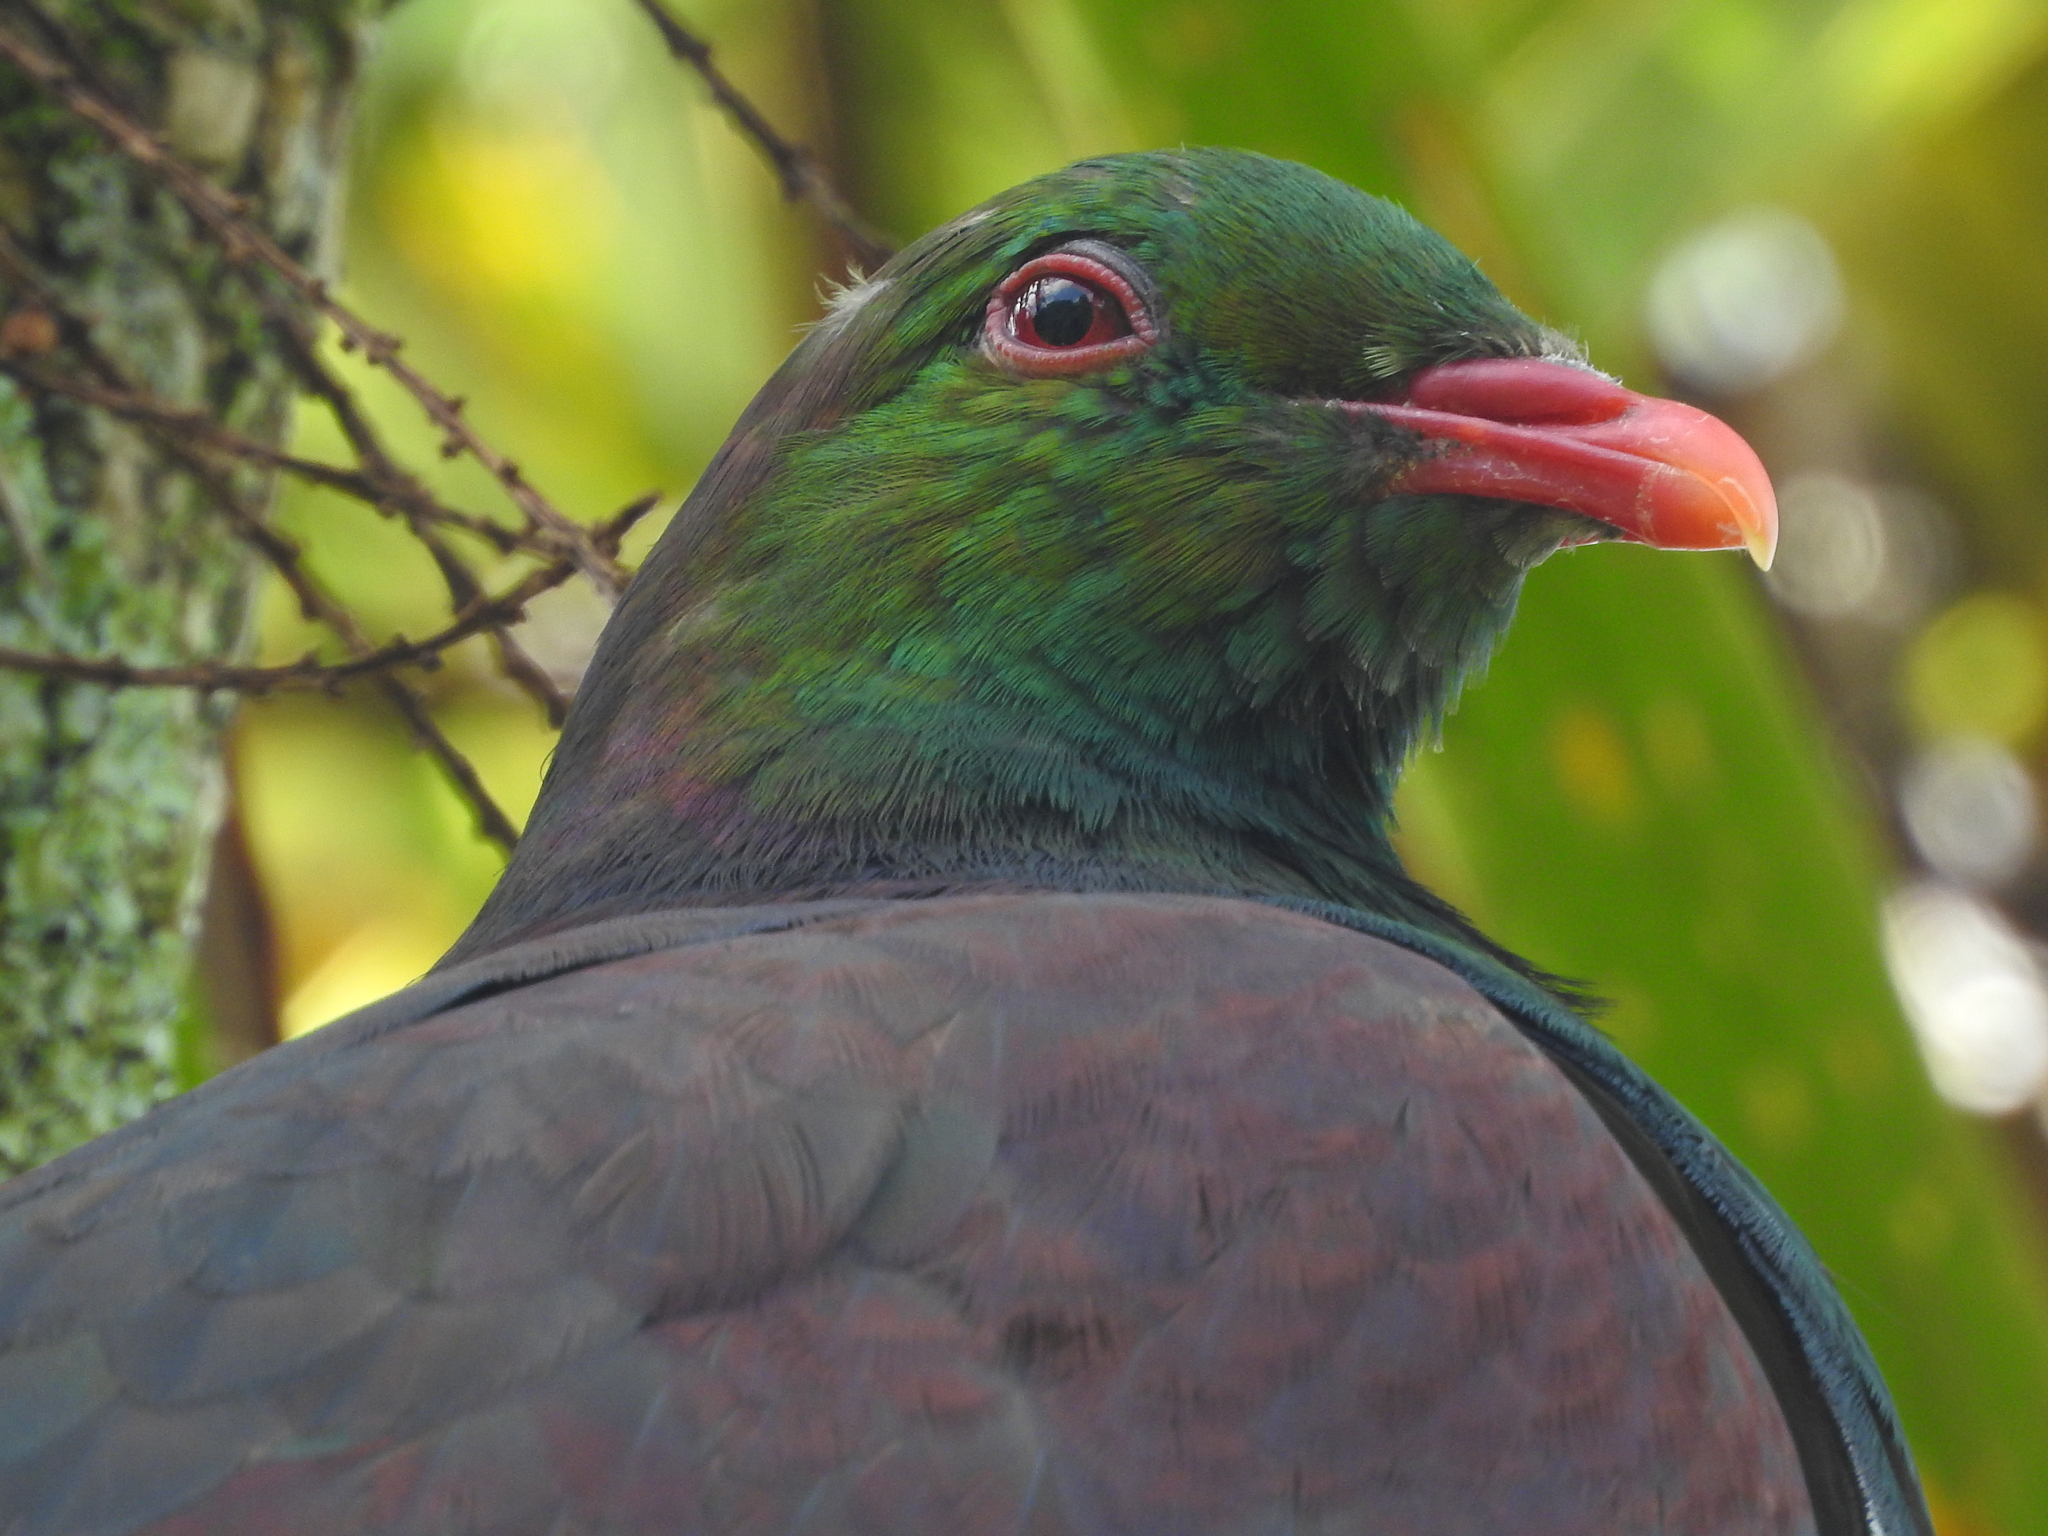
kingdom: Animalia
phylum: Chordata
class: Aves
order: Columbiformes
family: Columbidae
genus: Hemiphaga
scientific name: Hemiphaga novaeseelandiae
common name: New zealand pigeon
